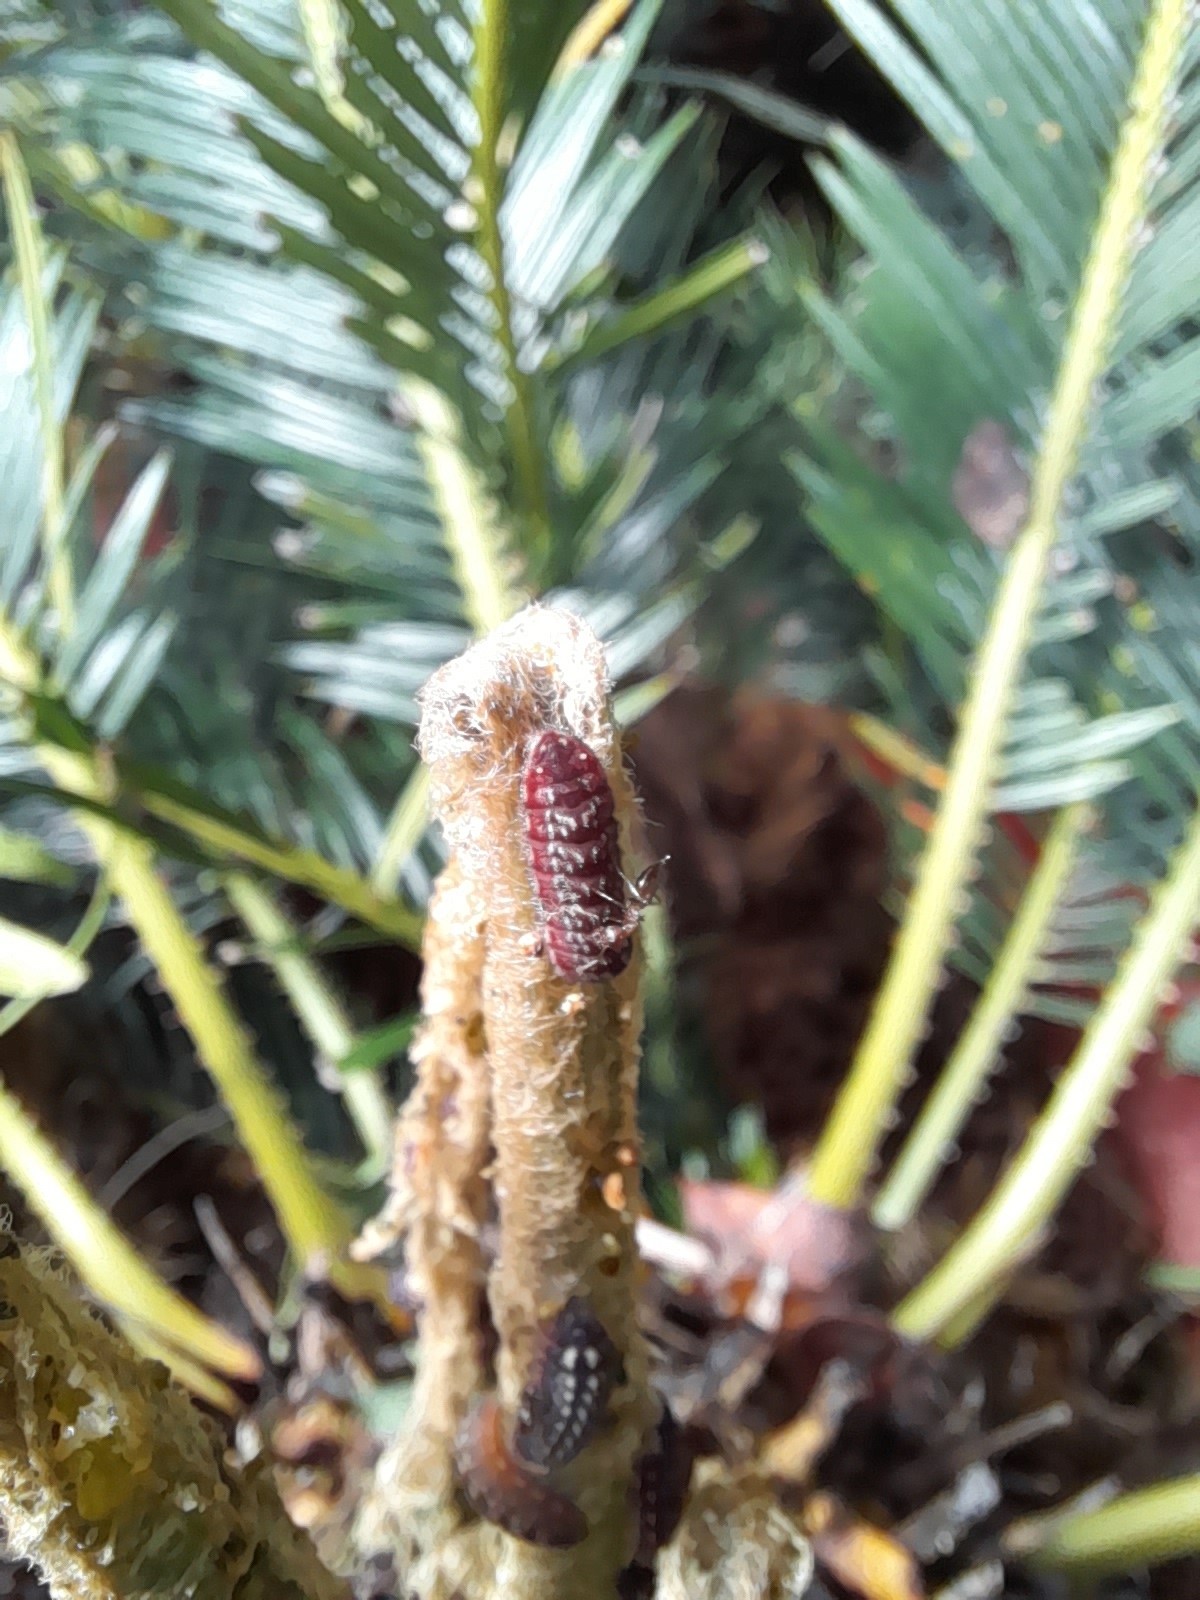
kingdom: Animalia
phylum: Arthropoda
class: Insecta
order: Lepidoptera
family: Lycaenidae
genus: Luthrodes
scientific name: Luthrodes pandava
